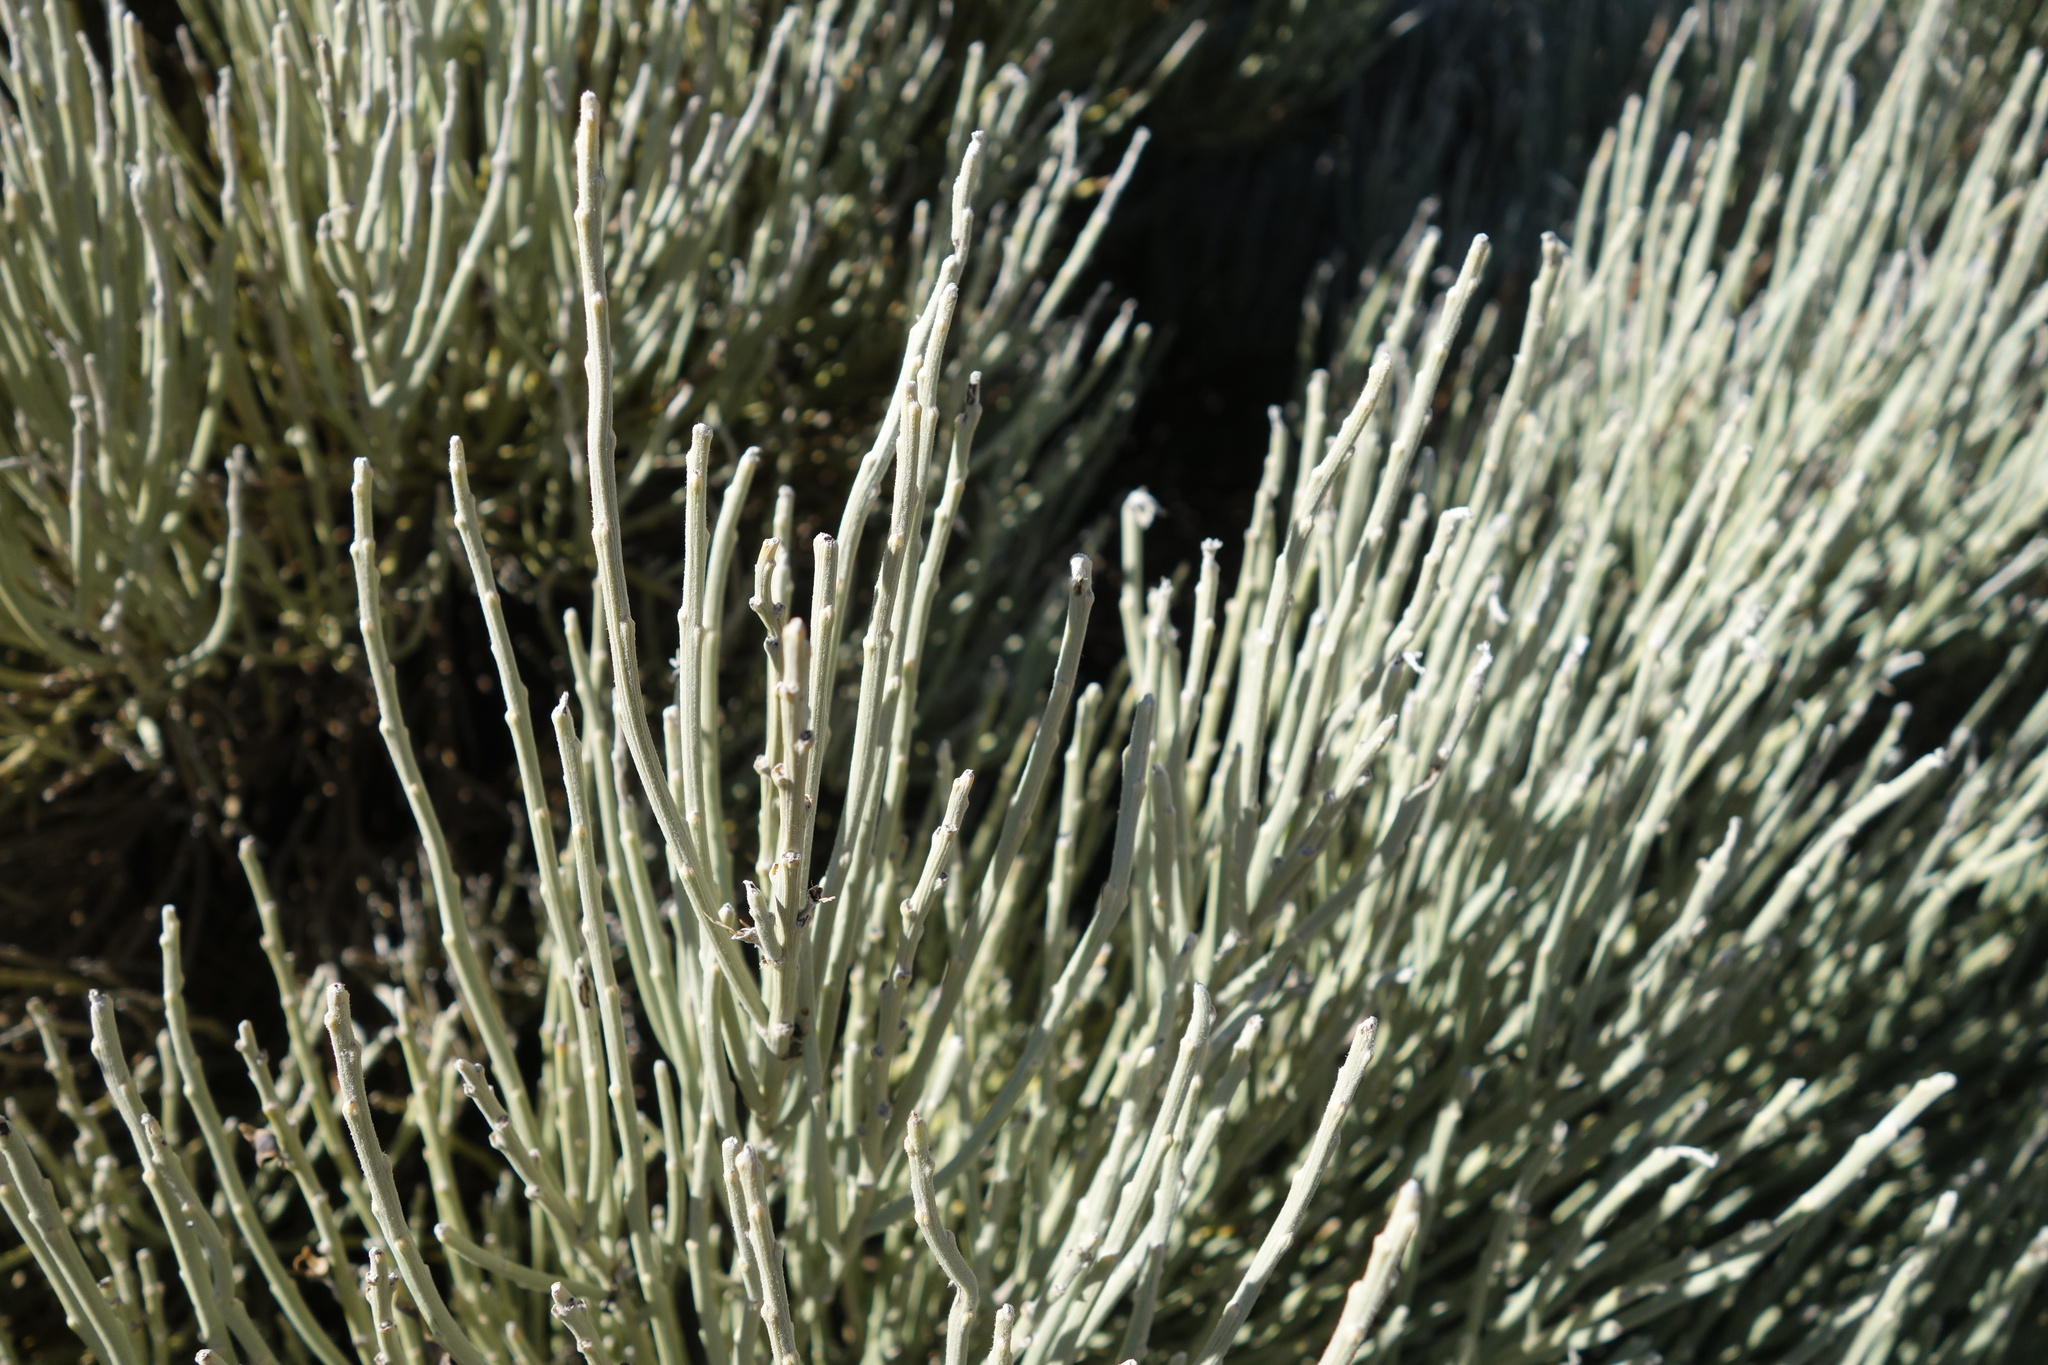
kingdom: Plantae
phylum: Tracheophyta
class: Magnoliopsida
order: Fabales
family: Fabaceae
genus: Cytisus
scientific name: Cytisus supranubius
